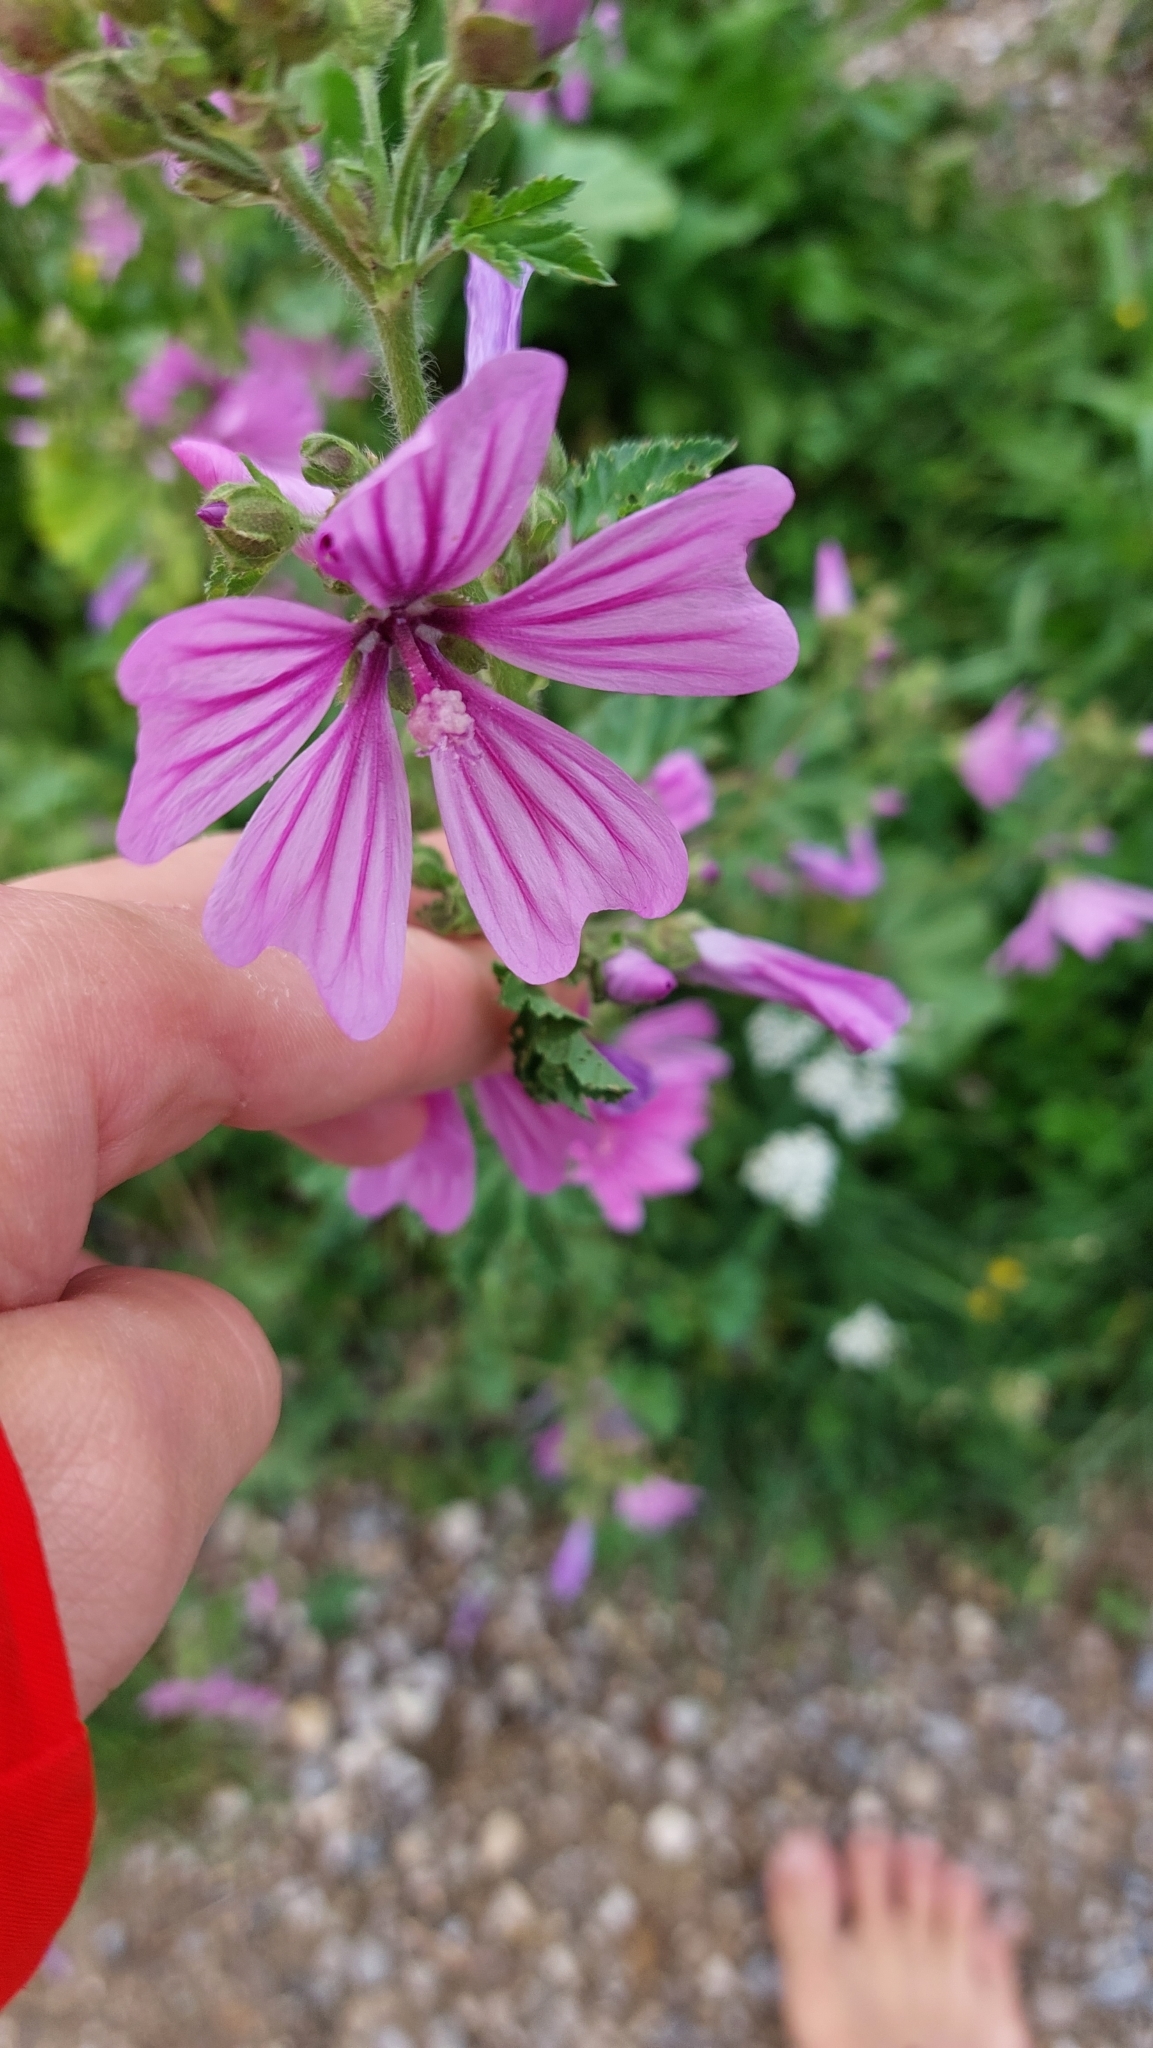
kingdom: Plantae
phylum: Tracheophyta
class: Magnoliopsida
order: Malvales
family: Malvaceae
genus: Malva
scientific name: Malva sylvestris
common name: Common mallow
